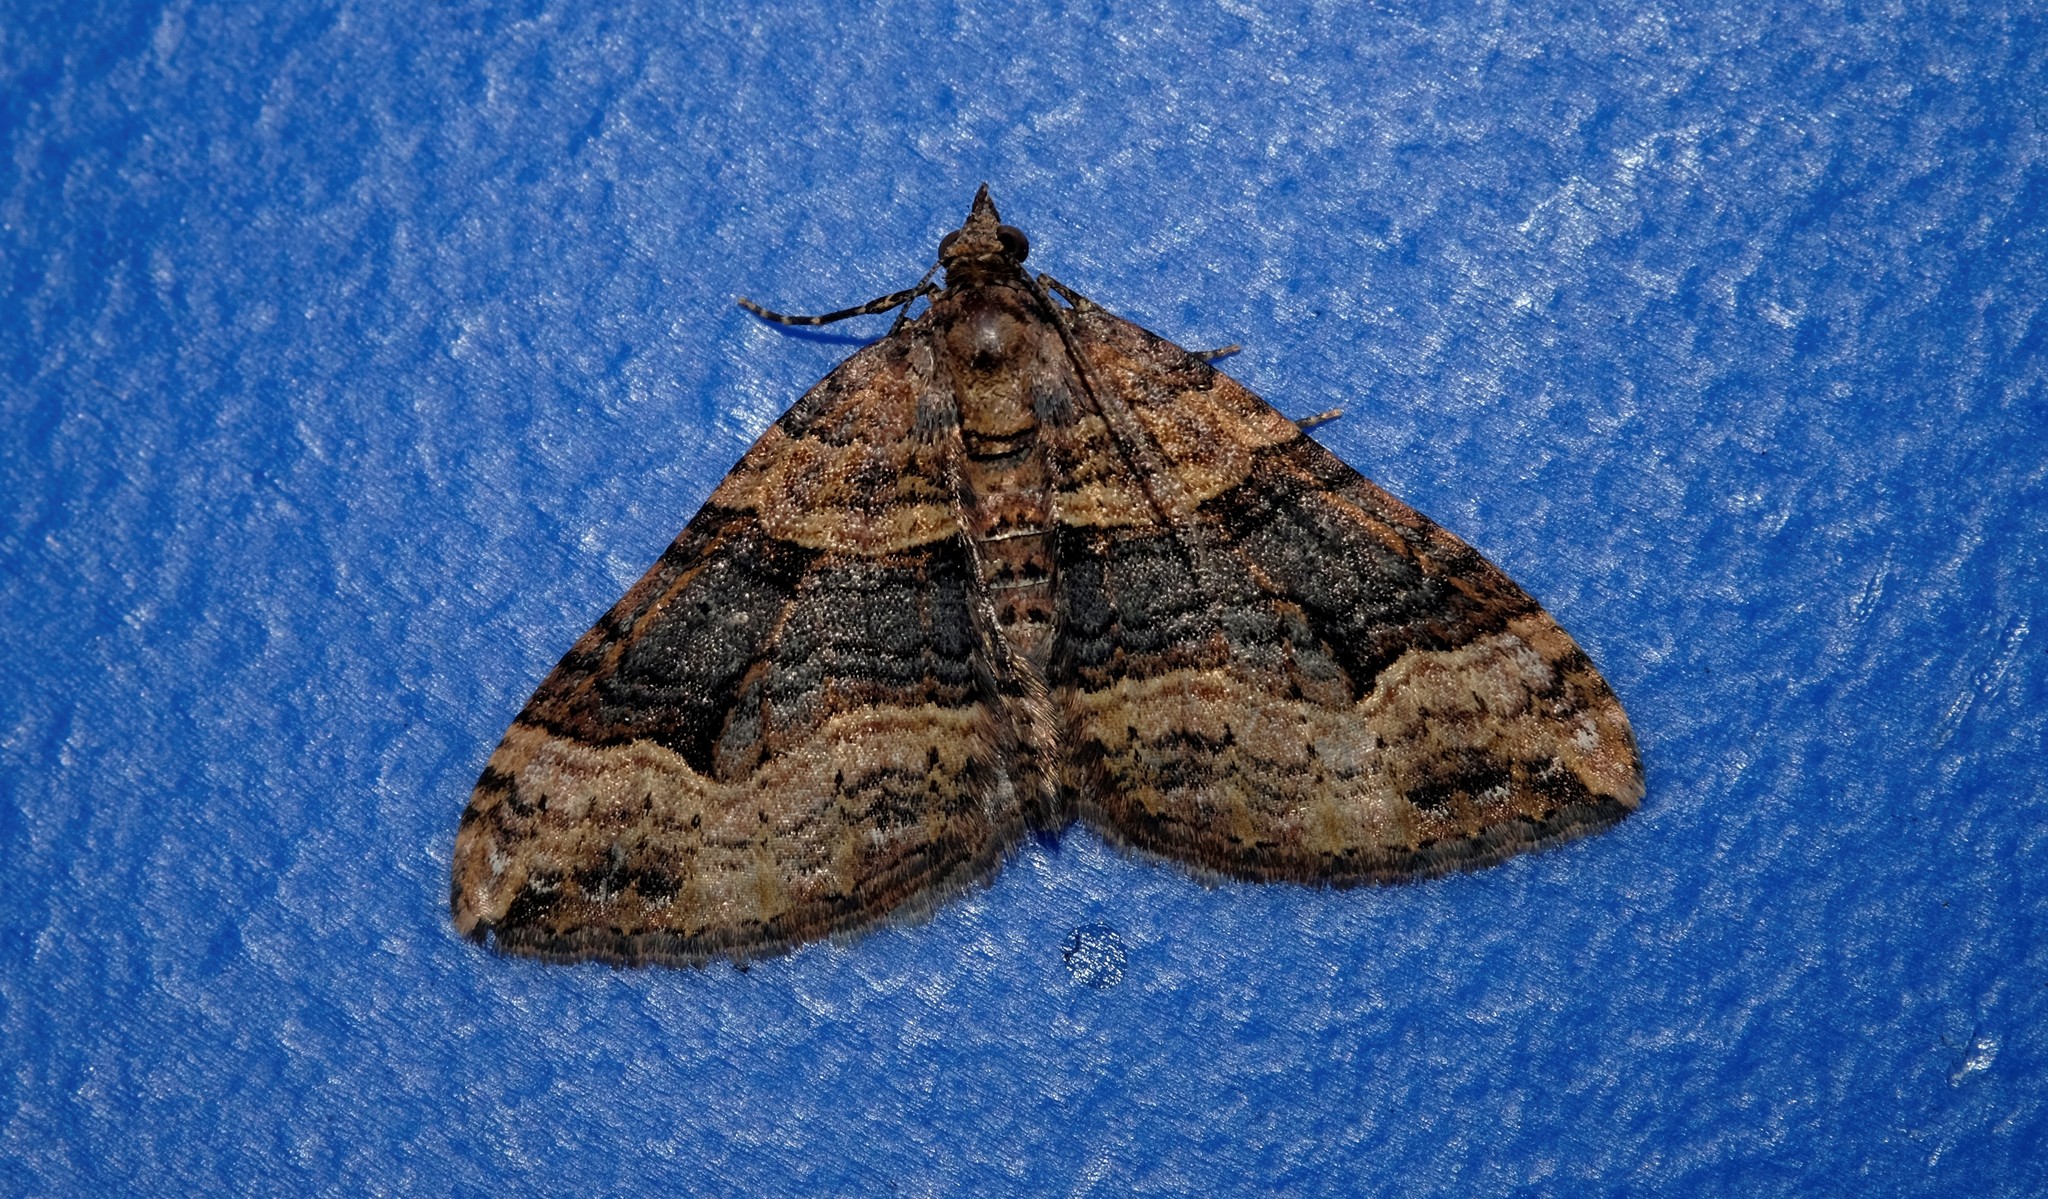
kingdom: Animalia
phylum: Arthropoda
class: Insecta
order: Lepidoptera
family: Geometridae
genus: Epyaxa
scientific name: Epyaxa subidaria
